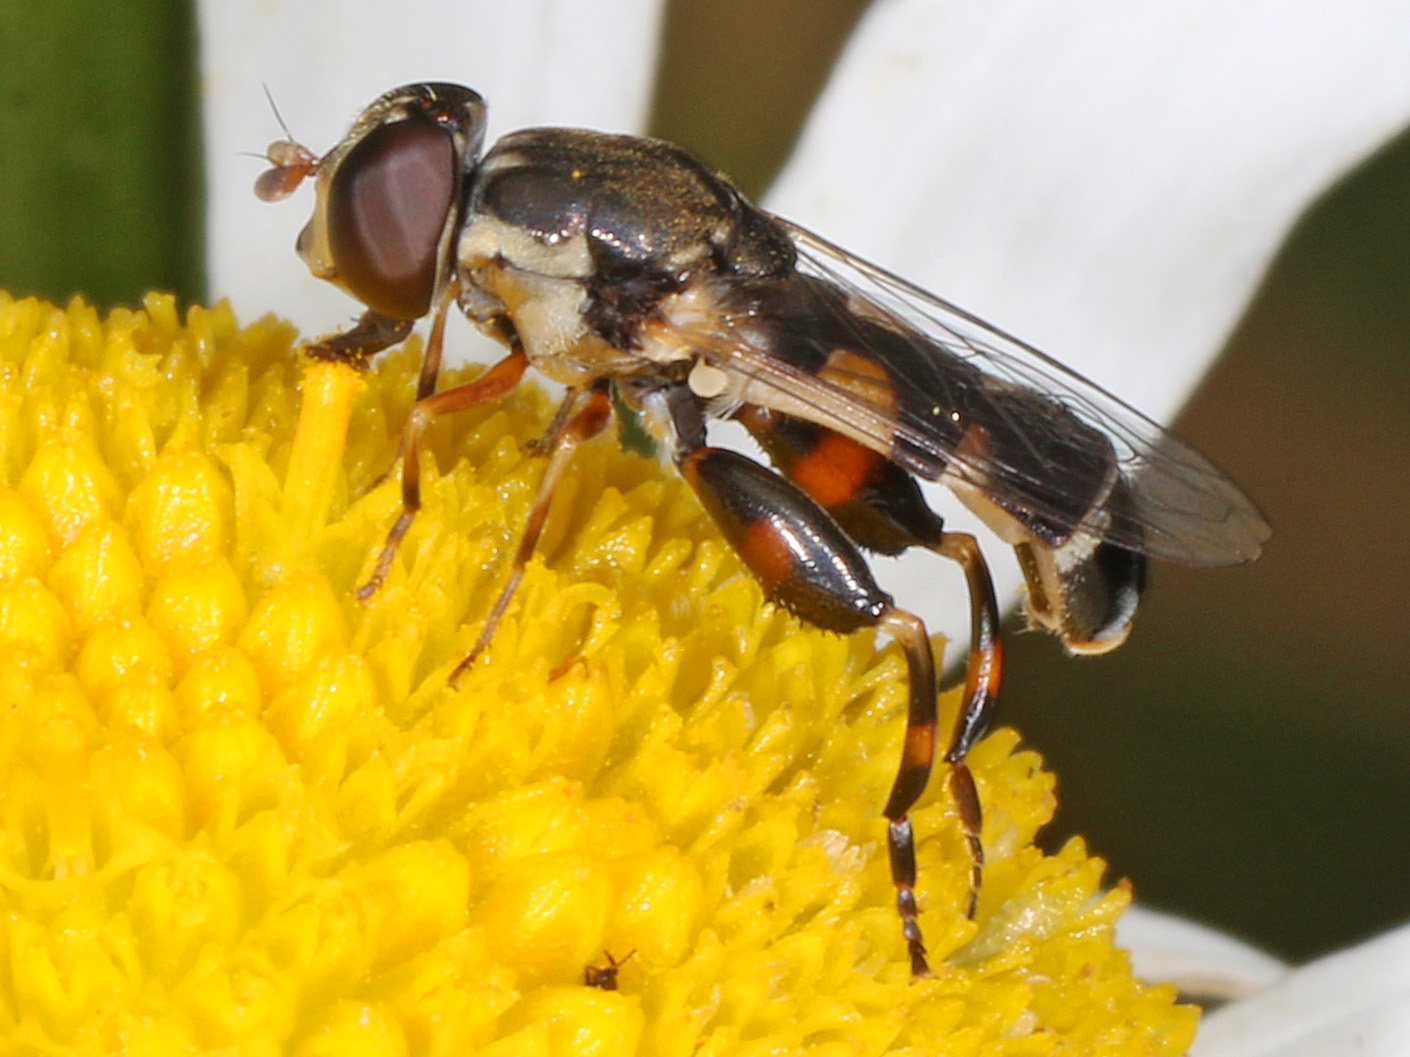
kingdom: Animalia
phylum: Arthropoda
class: Insecta
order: Diptera
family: Syrphidae
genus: Syritta
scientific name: Syritta pipiens
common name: Hover fly
